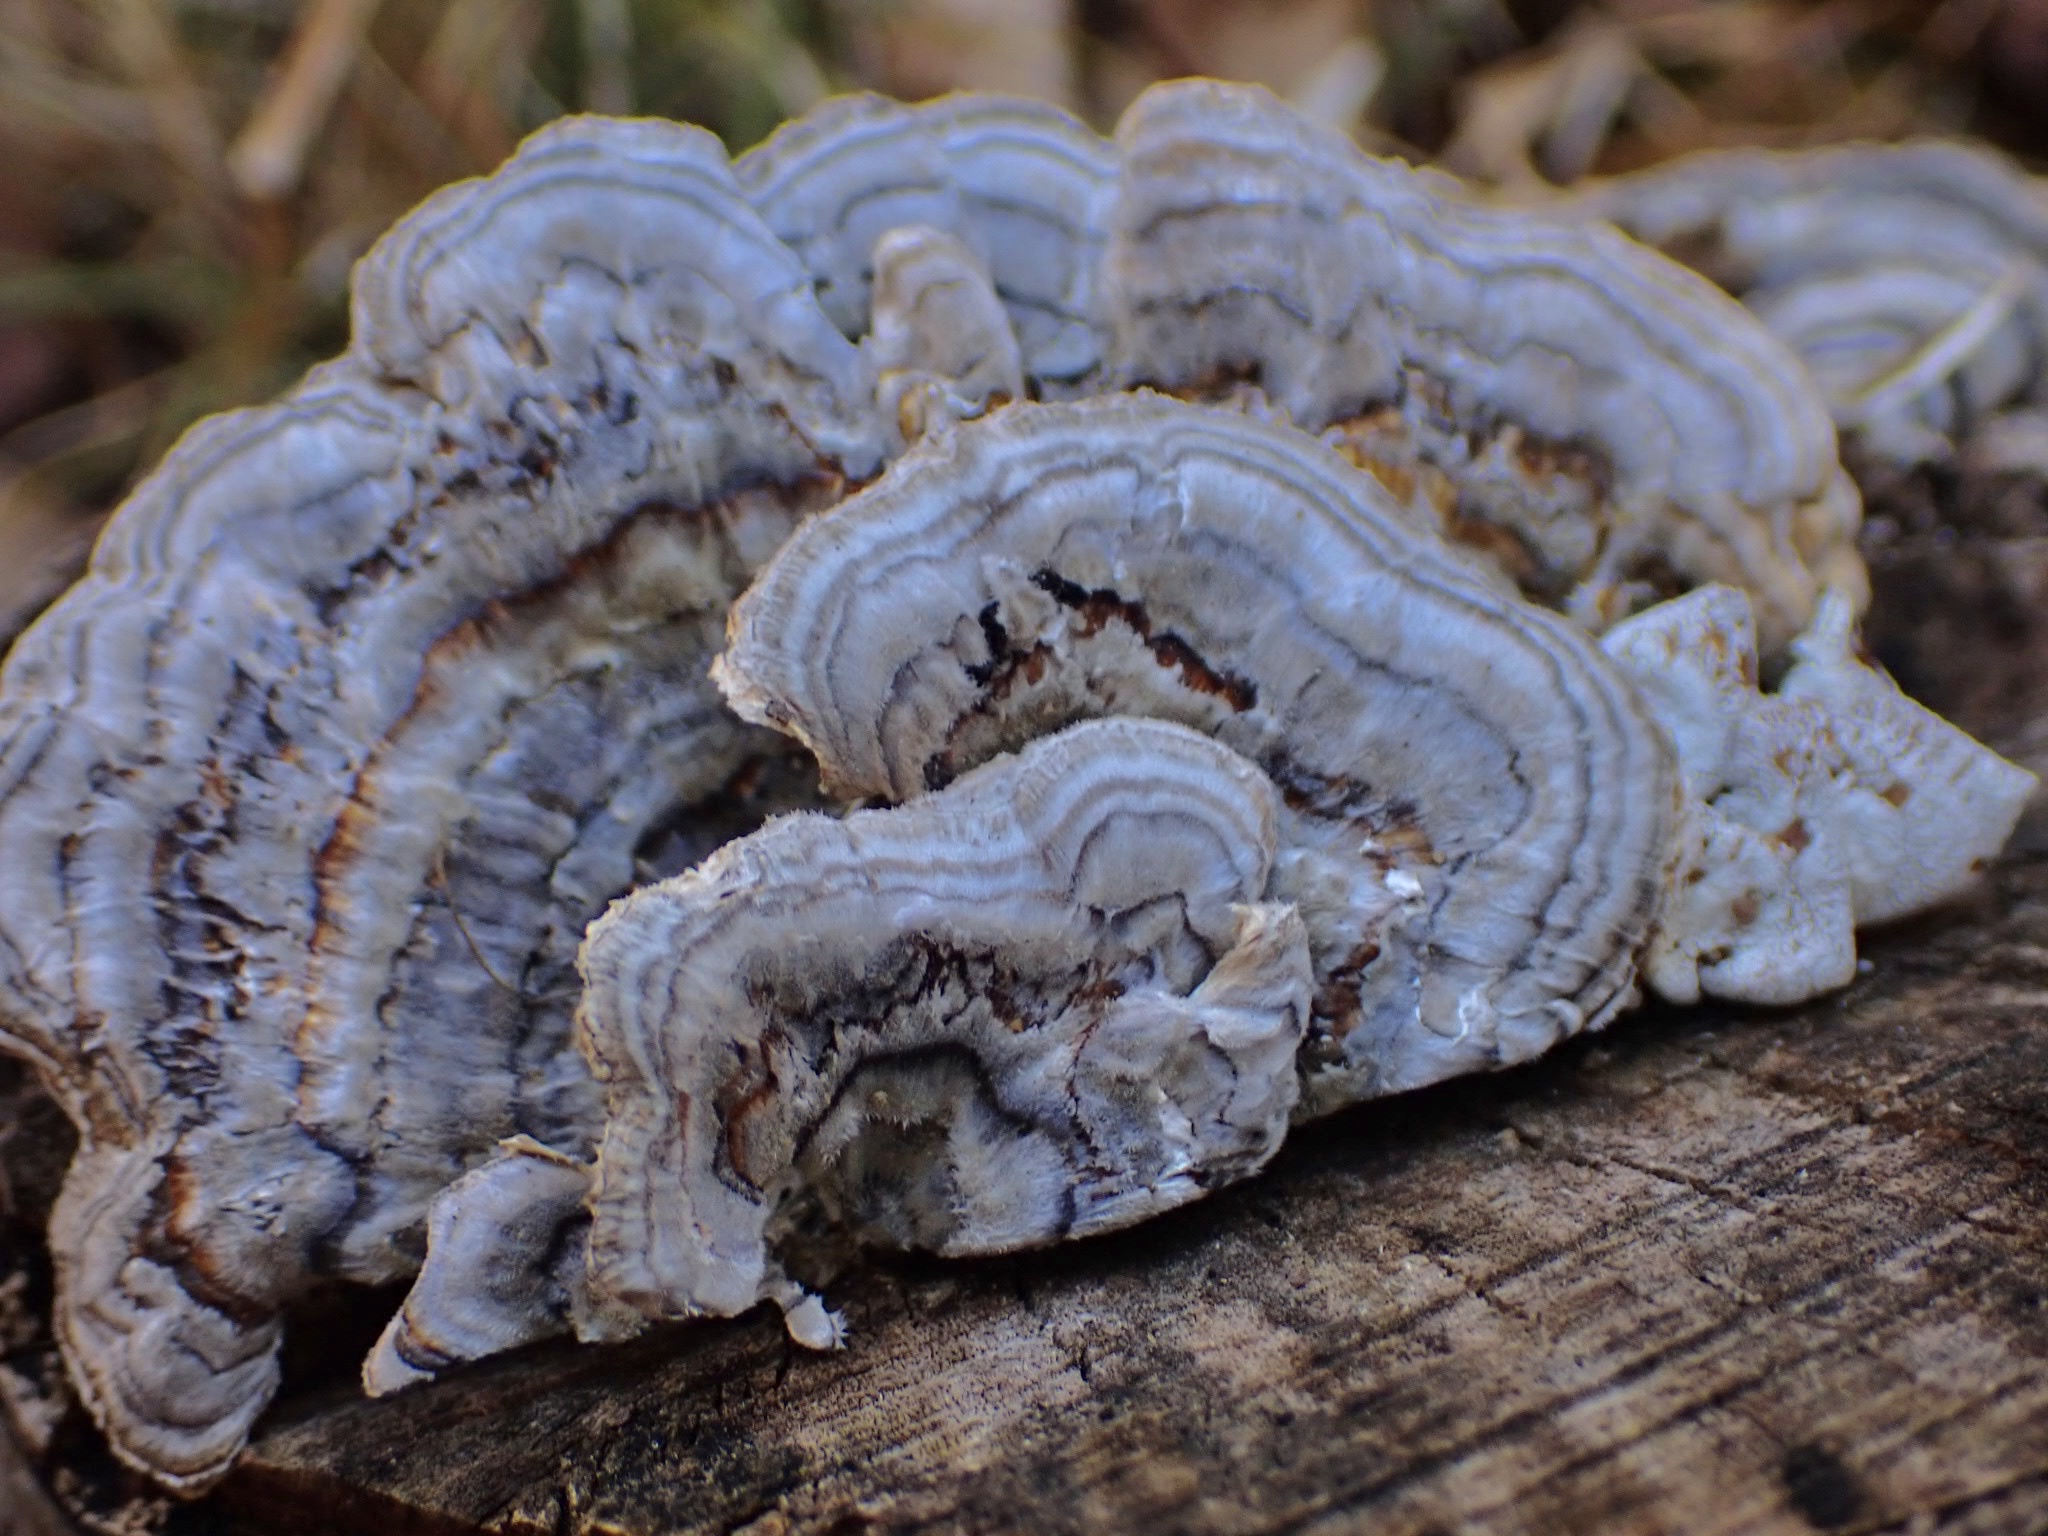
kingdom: Fungi
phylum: Basidiomycota
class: Agaricomycetes
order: Polyporales
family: Polyporaceae
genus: Trametes
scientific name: Trametes versicolor
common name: Turkeytail
